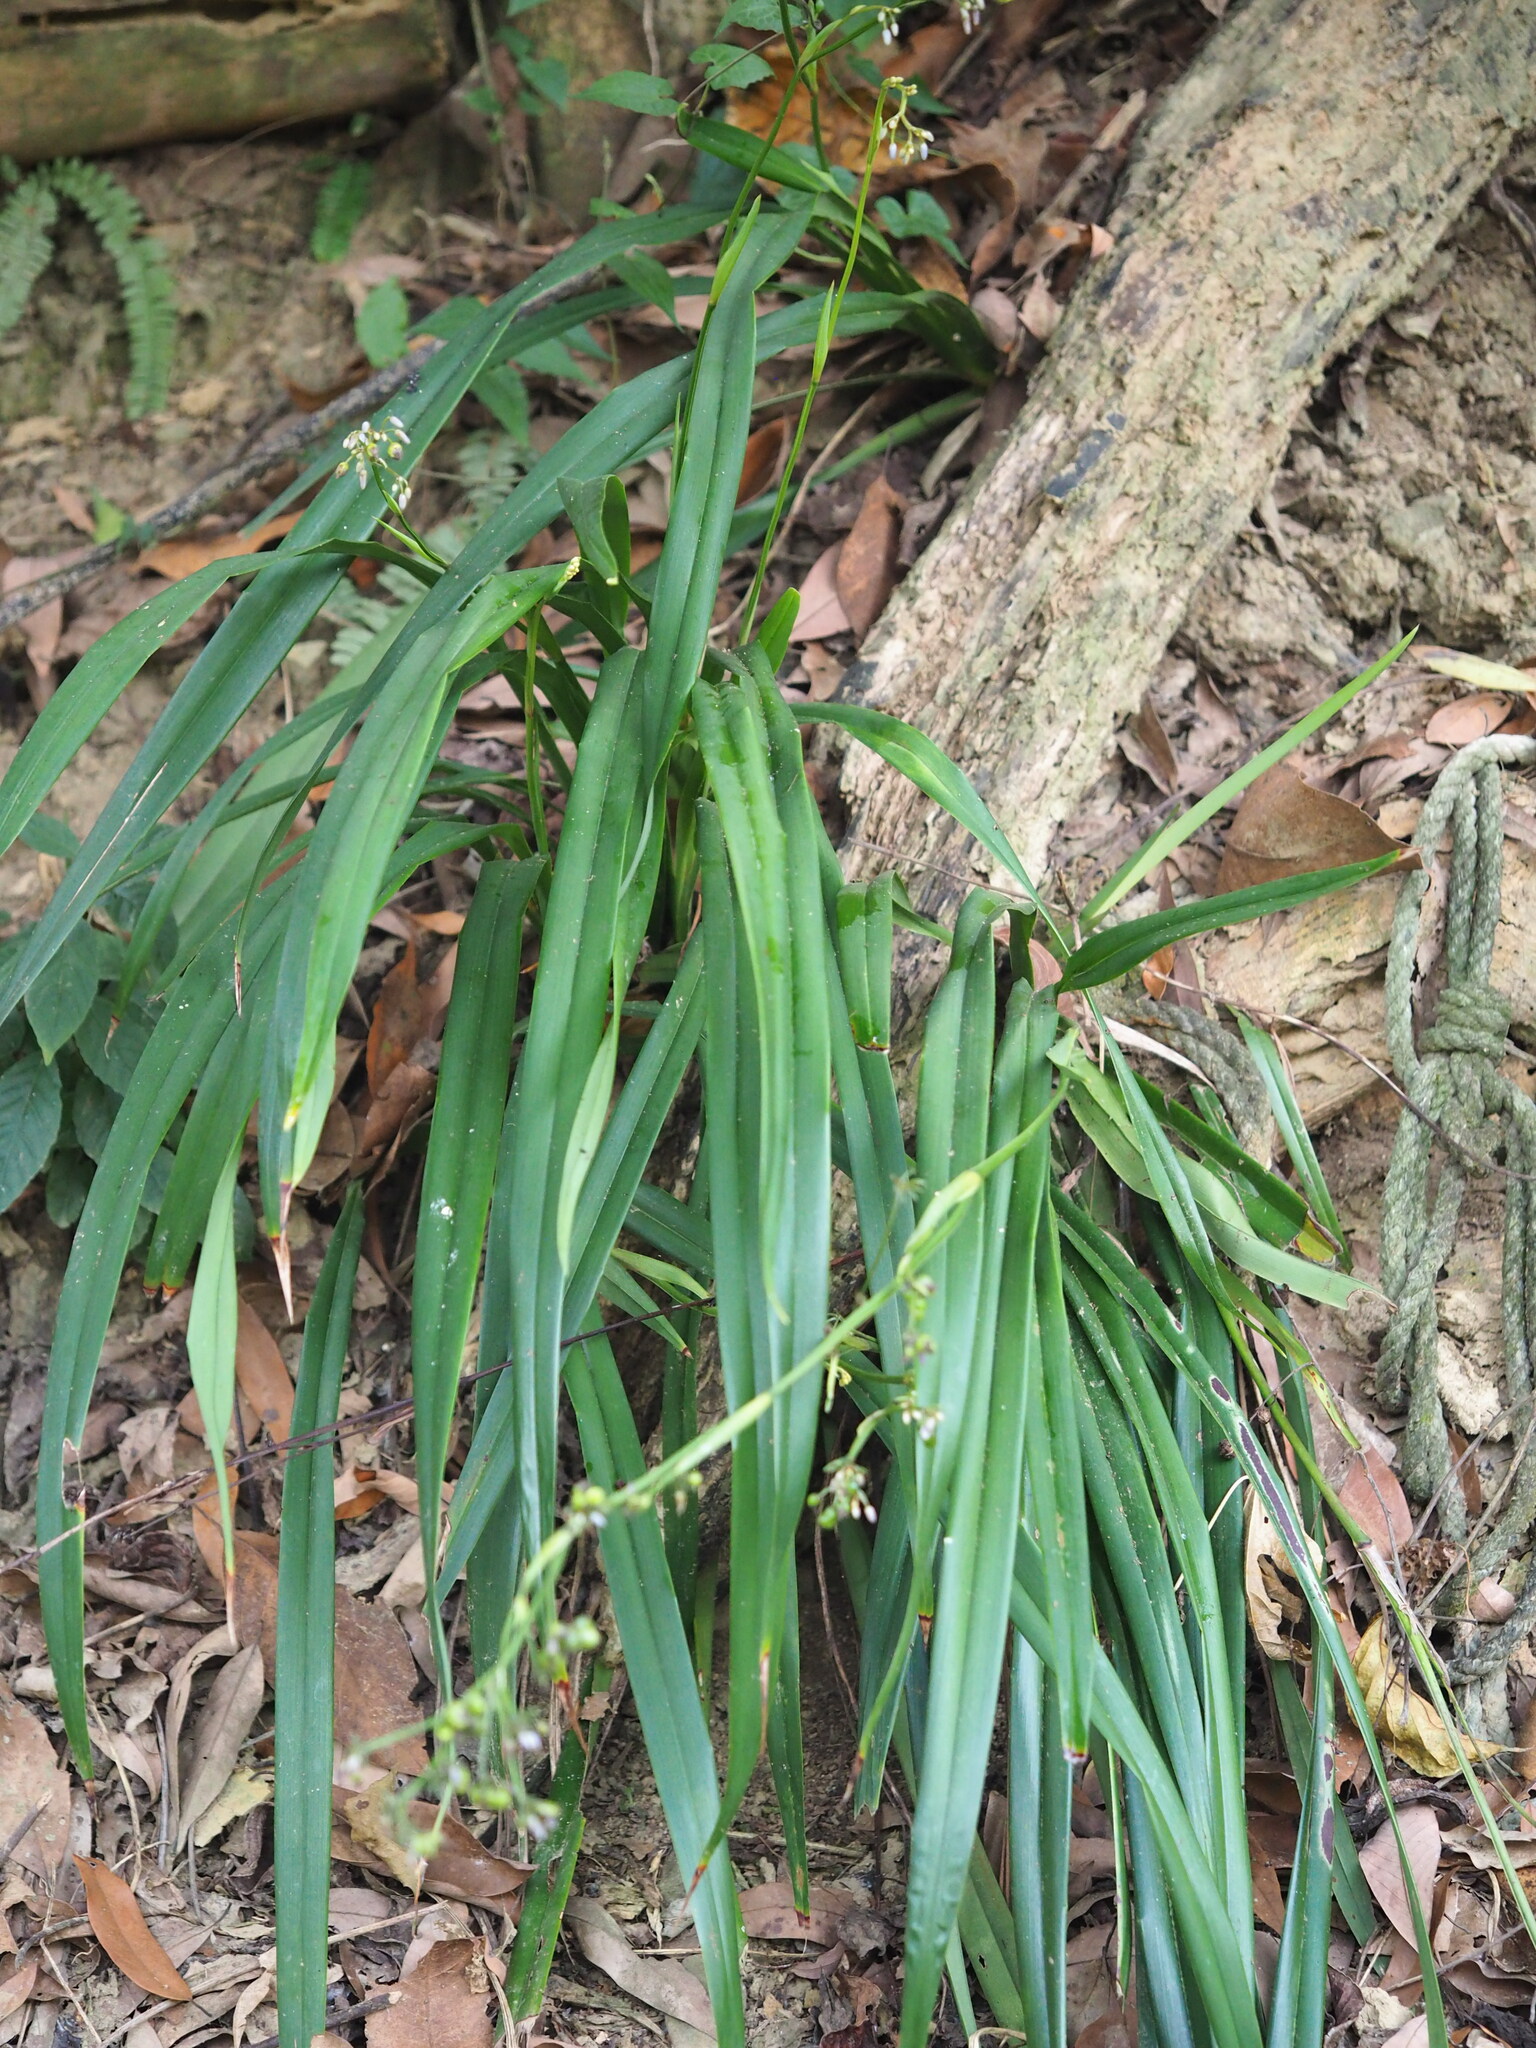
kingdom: Plantae
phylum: Tracheophyta
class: Liliopsida
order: Asparagales
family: Asphodelaceae
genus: Dianella
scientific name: Dianella ensifolia
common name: New zealand lilyplant
